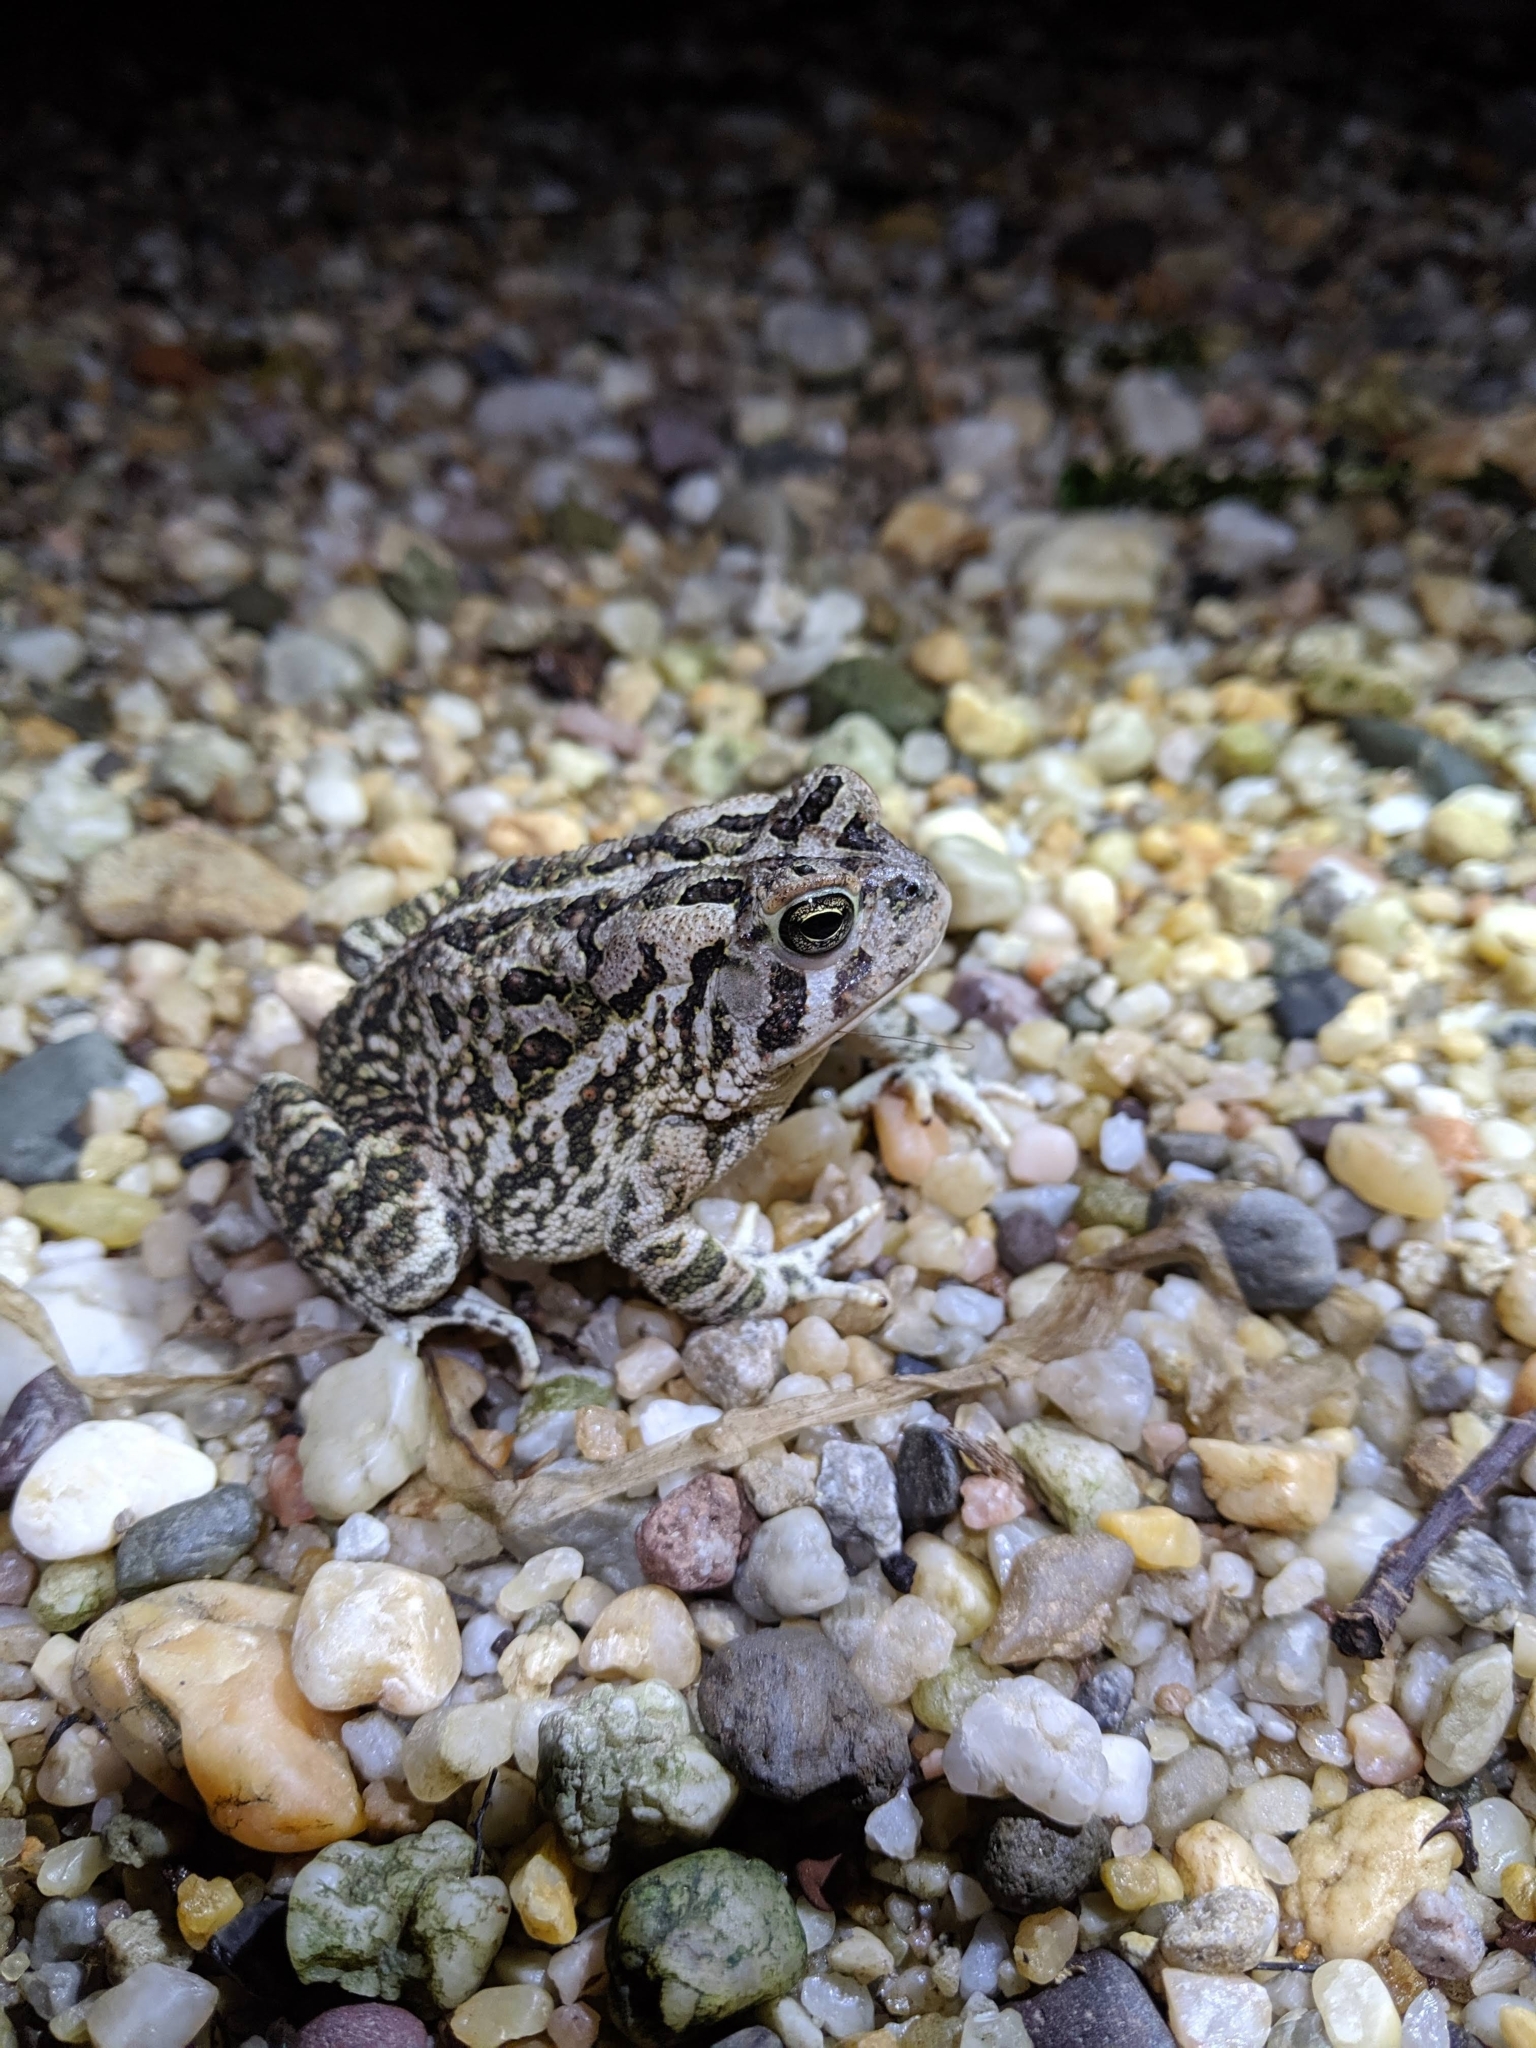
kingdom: Animalia
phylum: Chordata
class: Amphibia
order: Anura
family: Bufonidae
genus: Anaxyrus
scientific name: Anaxyrus fowleri
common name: Fowler's toad
